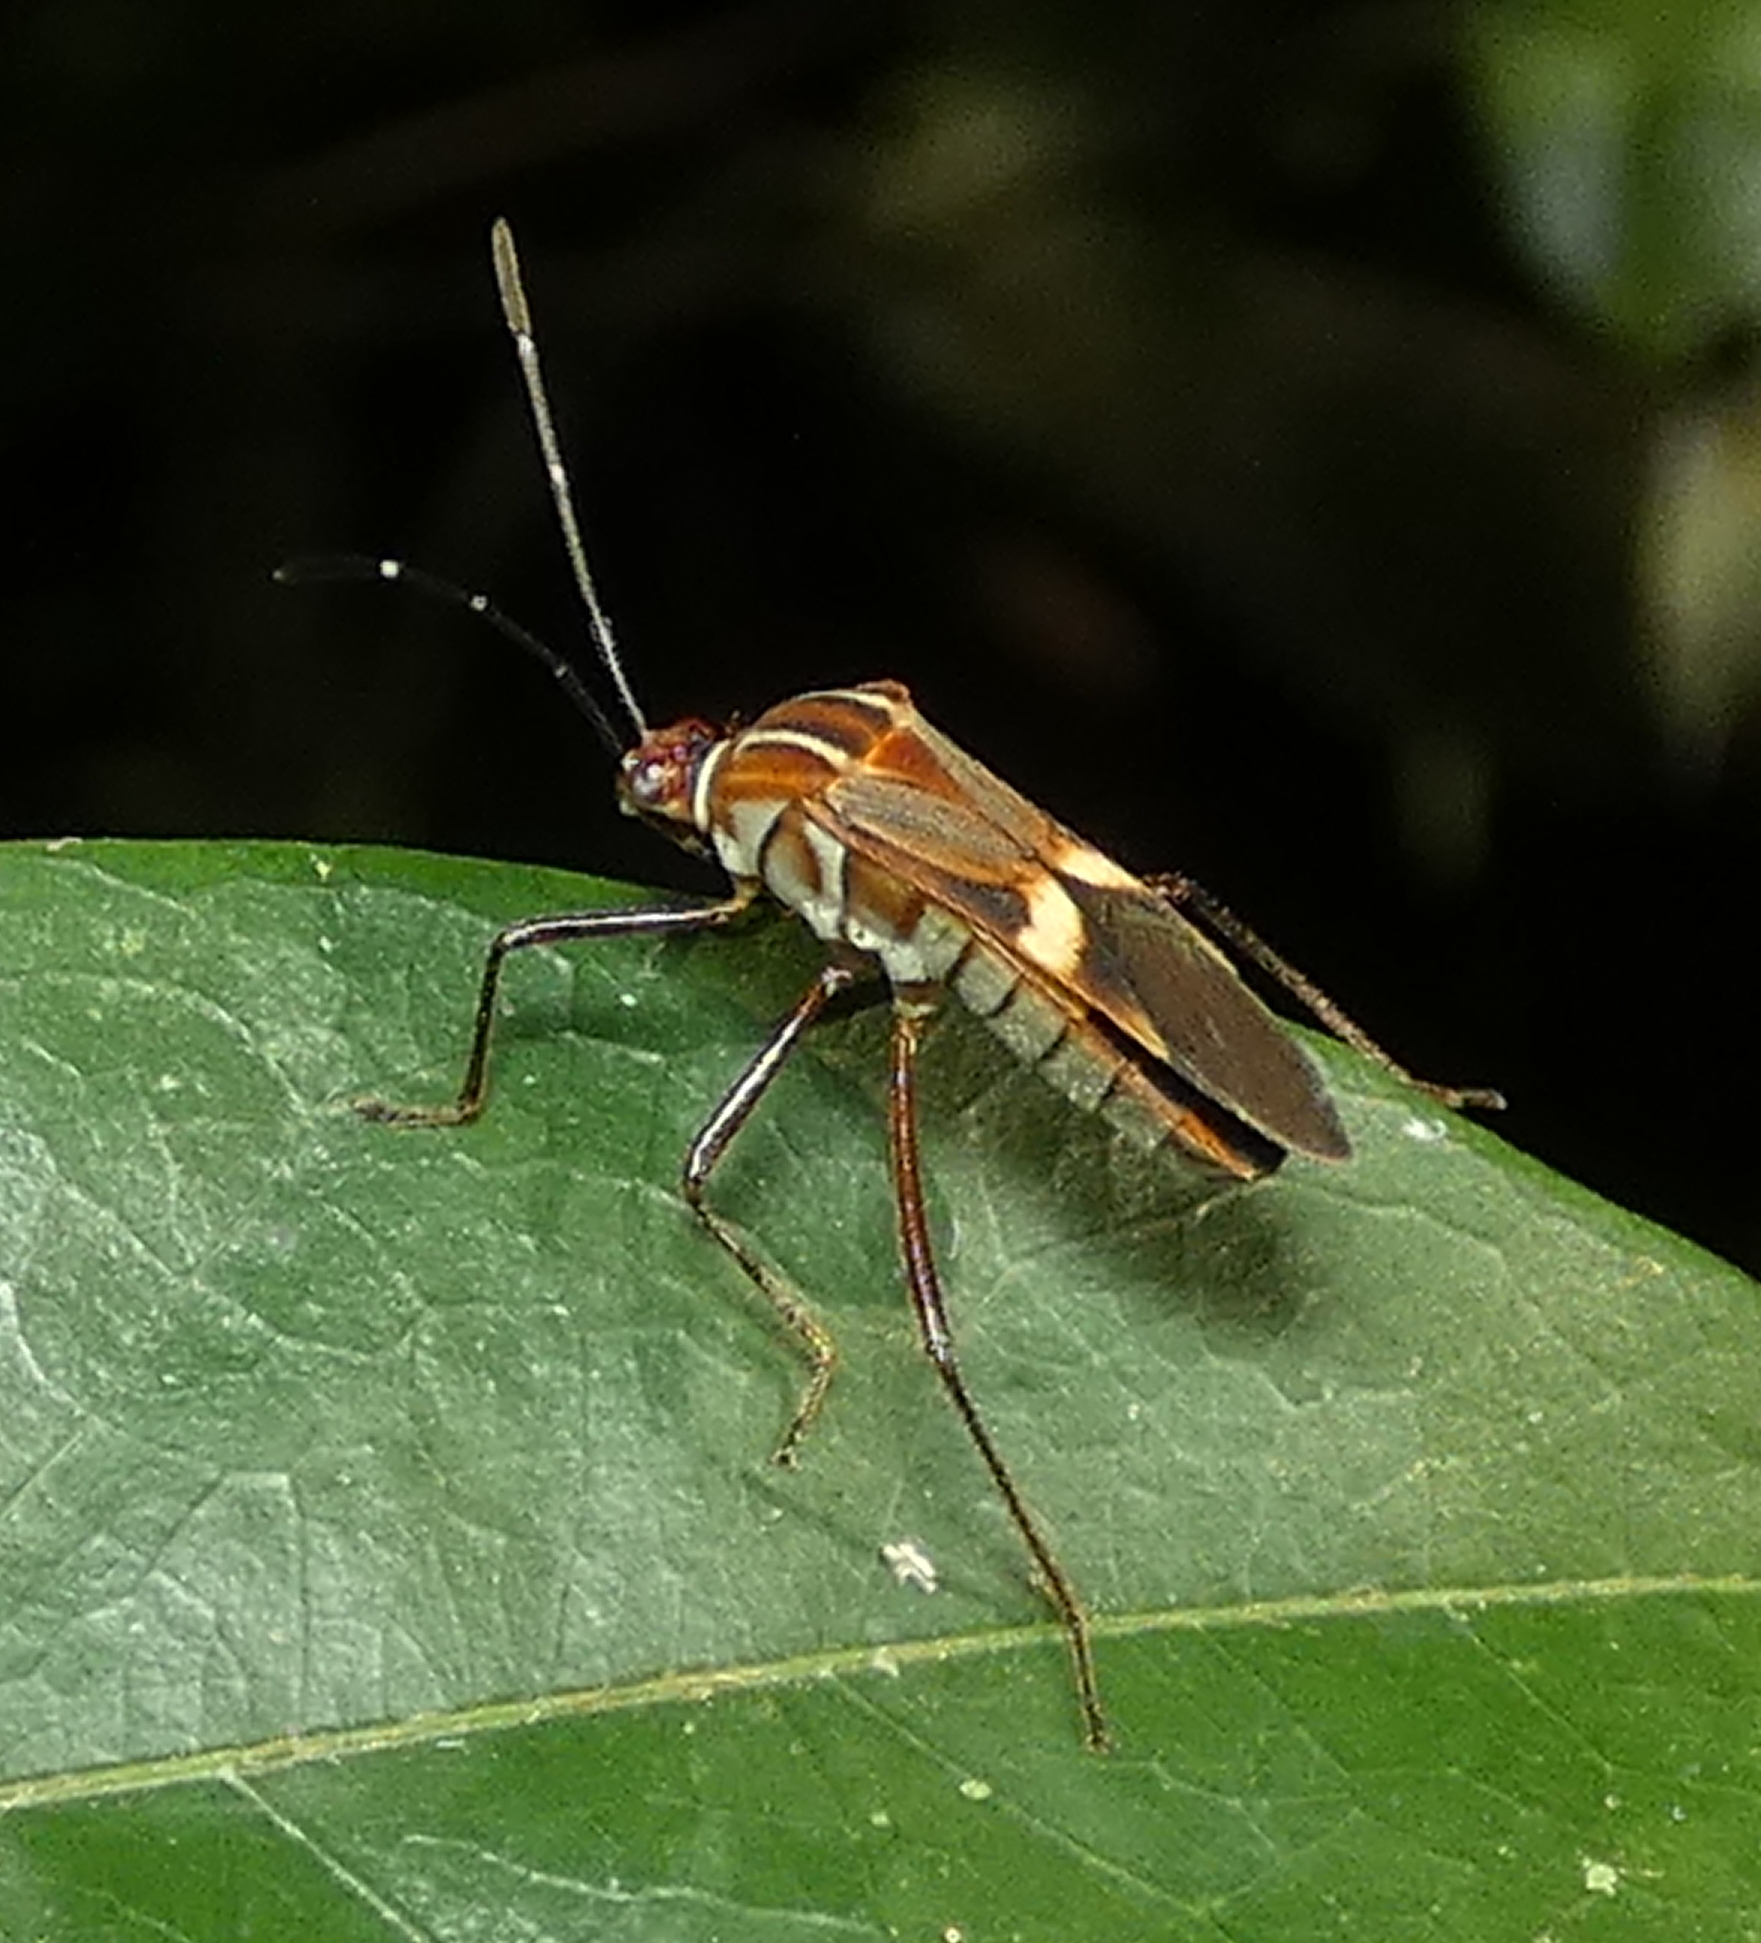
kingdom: Animalia
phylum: Arthropoda
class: Insecta
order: Hemiptera
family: Coreidae
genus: Hypselonotus
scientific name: Hypselonotus interruptus
